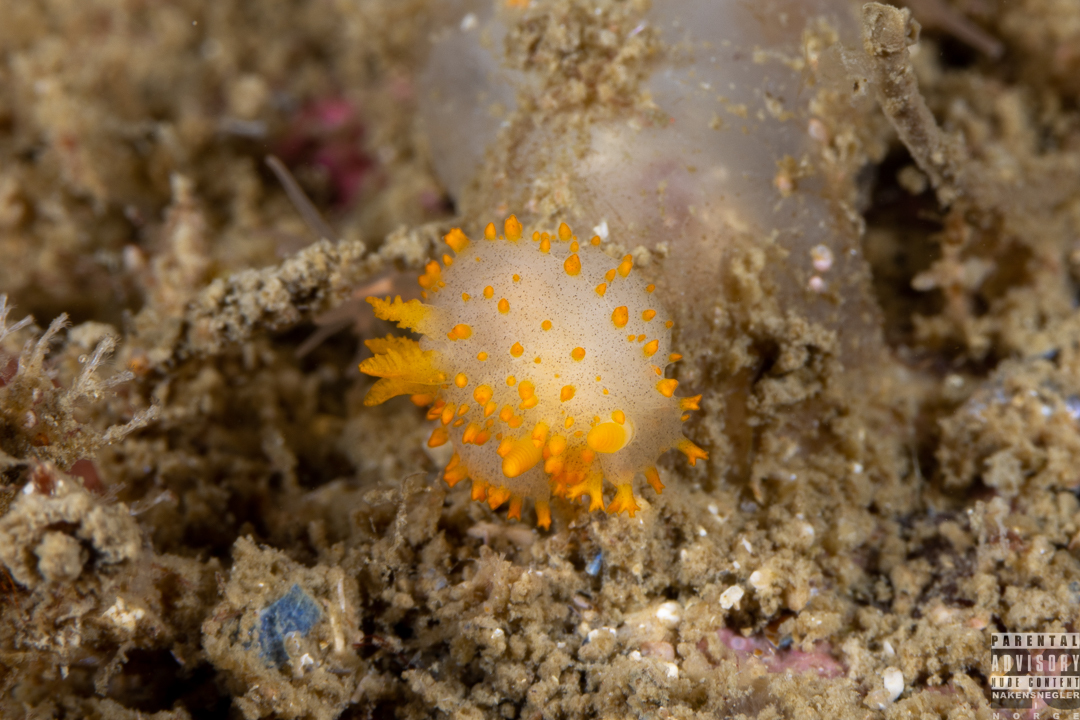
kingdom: Animalia
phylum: Mollusca
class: Gastropoda
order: Nudibranchia
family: Polyceridae
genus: Crimora
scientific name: Crimora papillata
